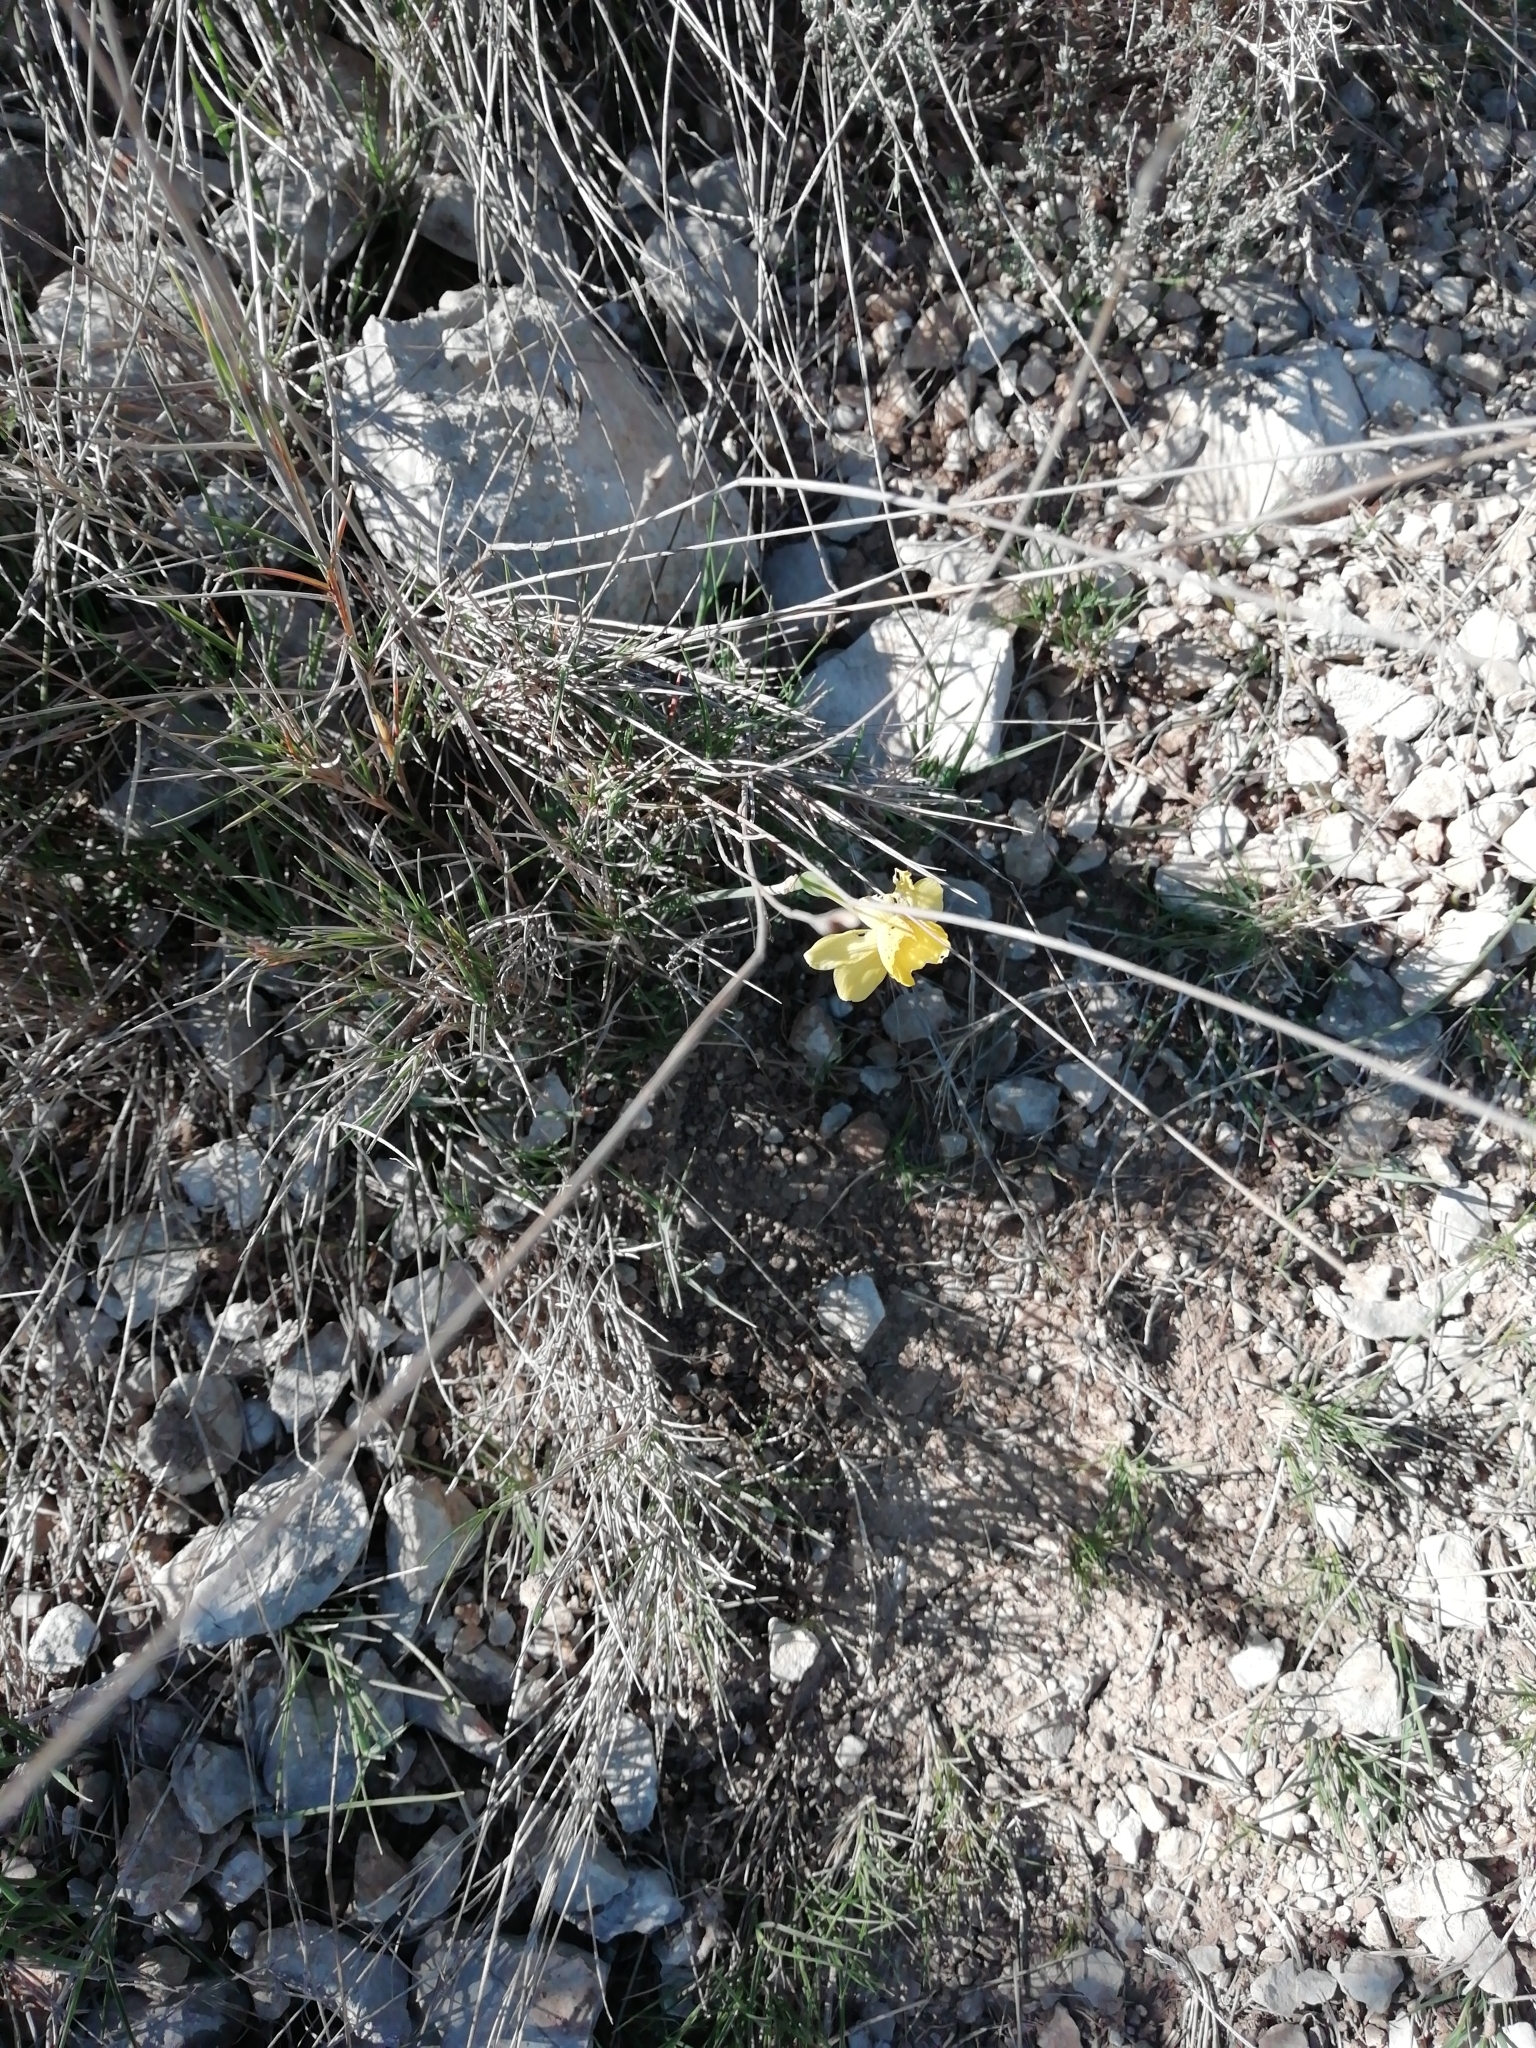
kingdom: Plantae
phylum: Tracheophyta
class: Liliopsida
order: Asparagales
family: Amaryllidaceae
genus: Narcissus
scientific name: Narcissus assoanus
